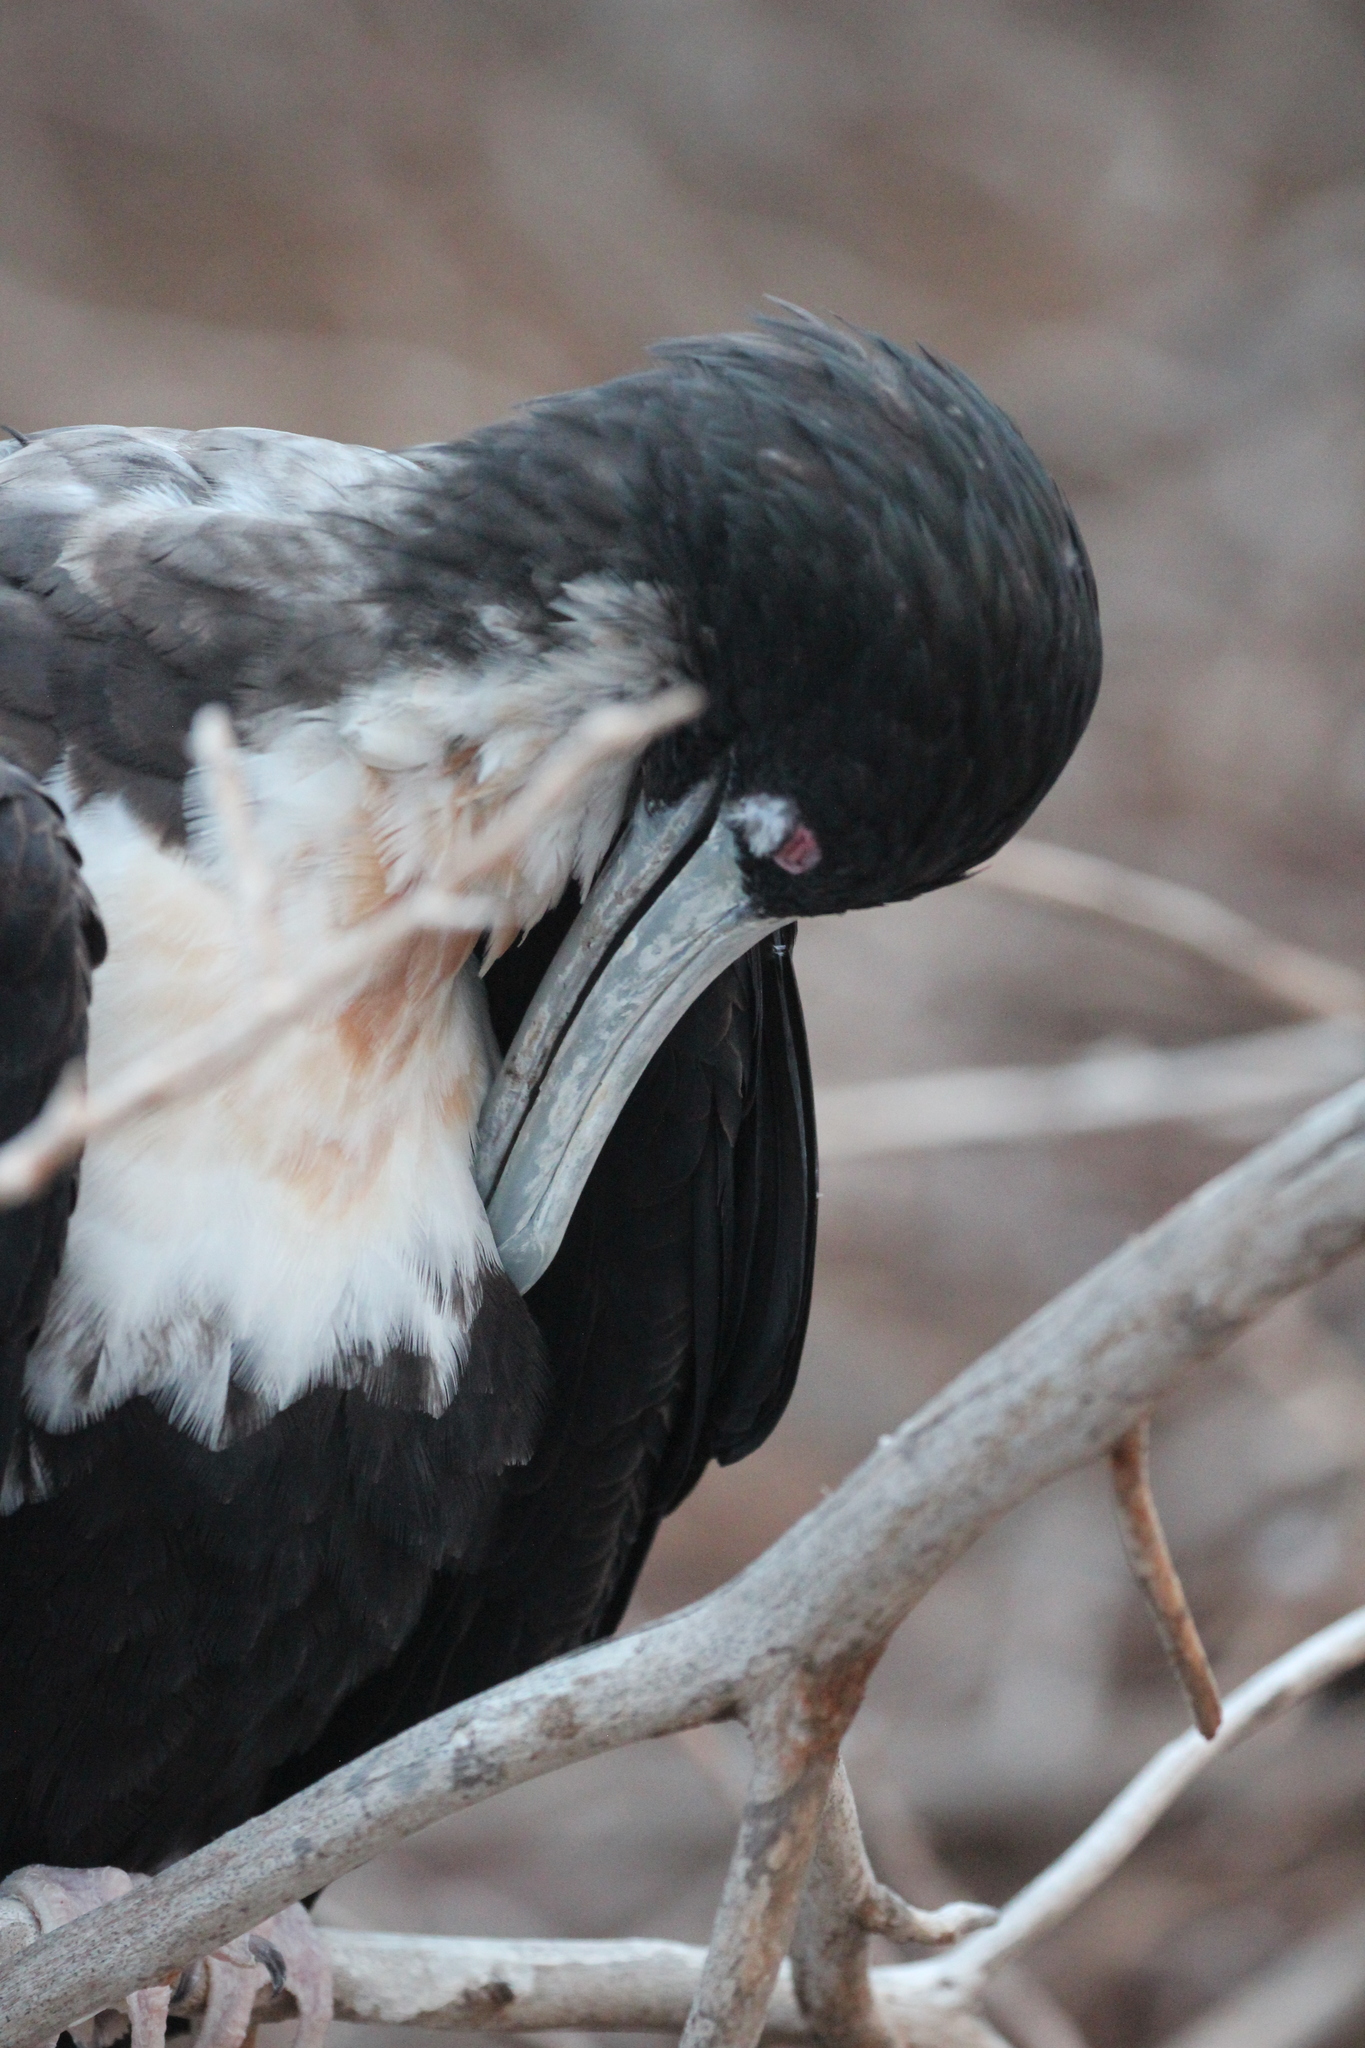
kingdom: Animalia
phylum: Chordata
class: Aves
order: Suliformes
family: Fregatidae
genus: Fregata
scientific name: Fregata minor
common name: Great frigatebird
